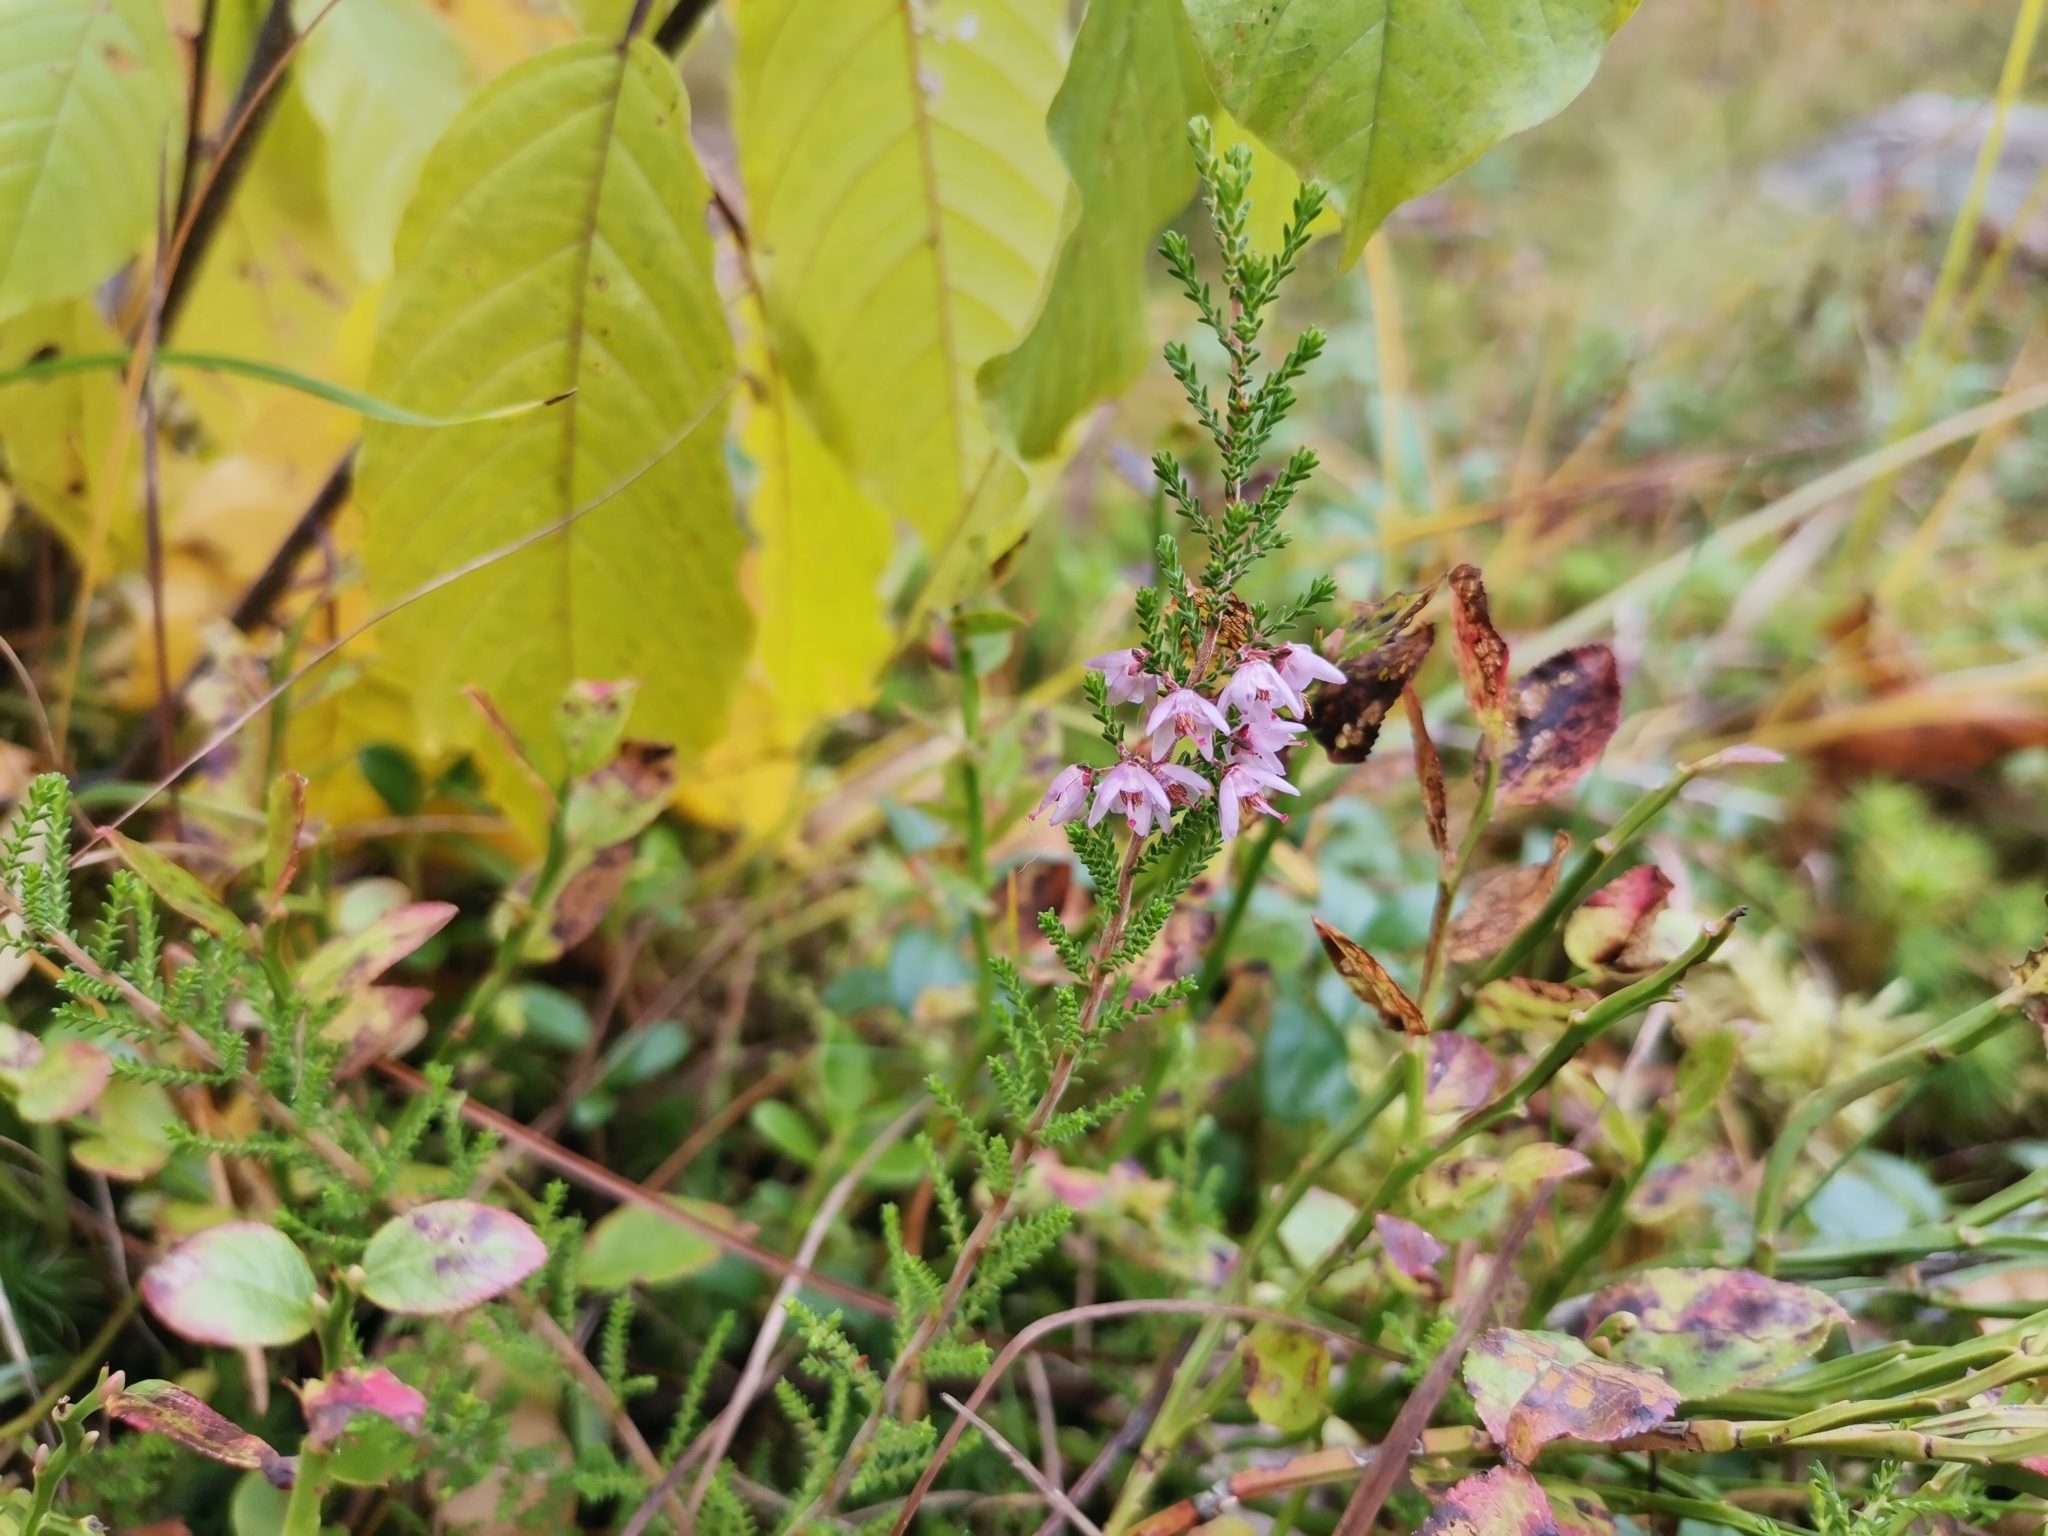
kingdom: Plantae
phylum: Tracheophyta
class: Magnoliopsida
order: Ericales
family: Ericaceae
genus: Calluna
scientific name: Calluna vulgaris
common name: Heather
